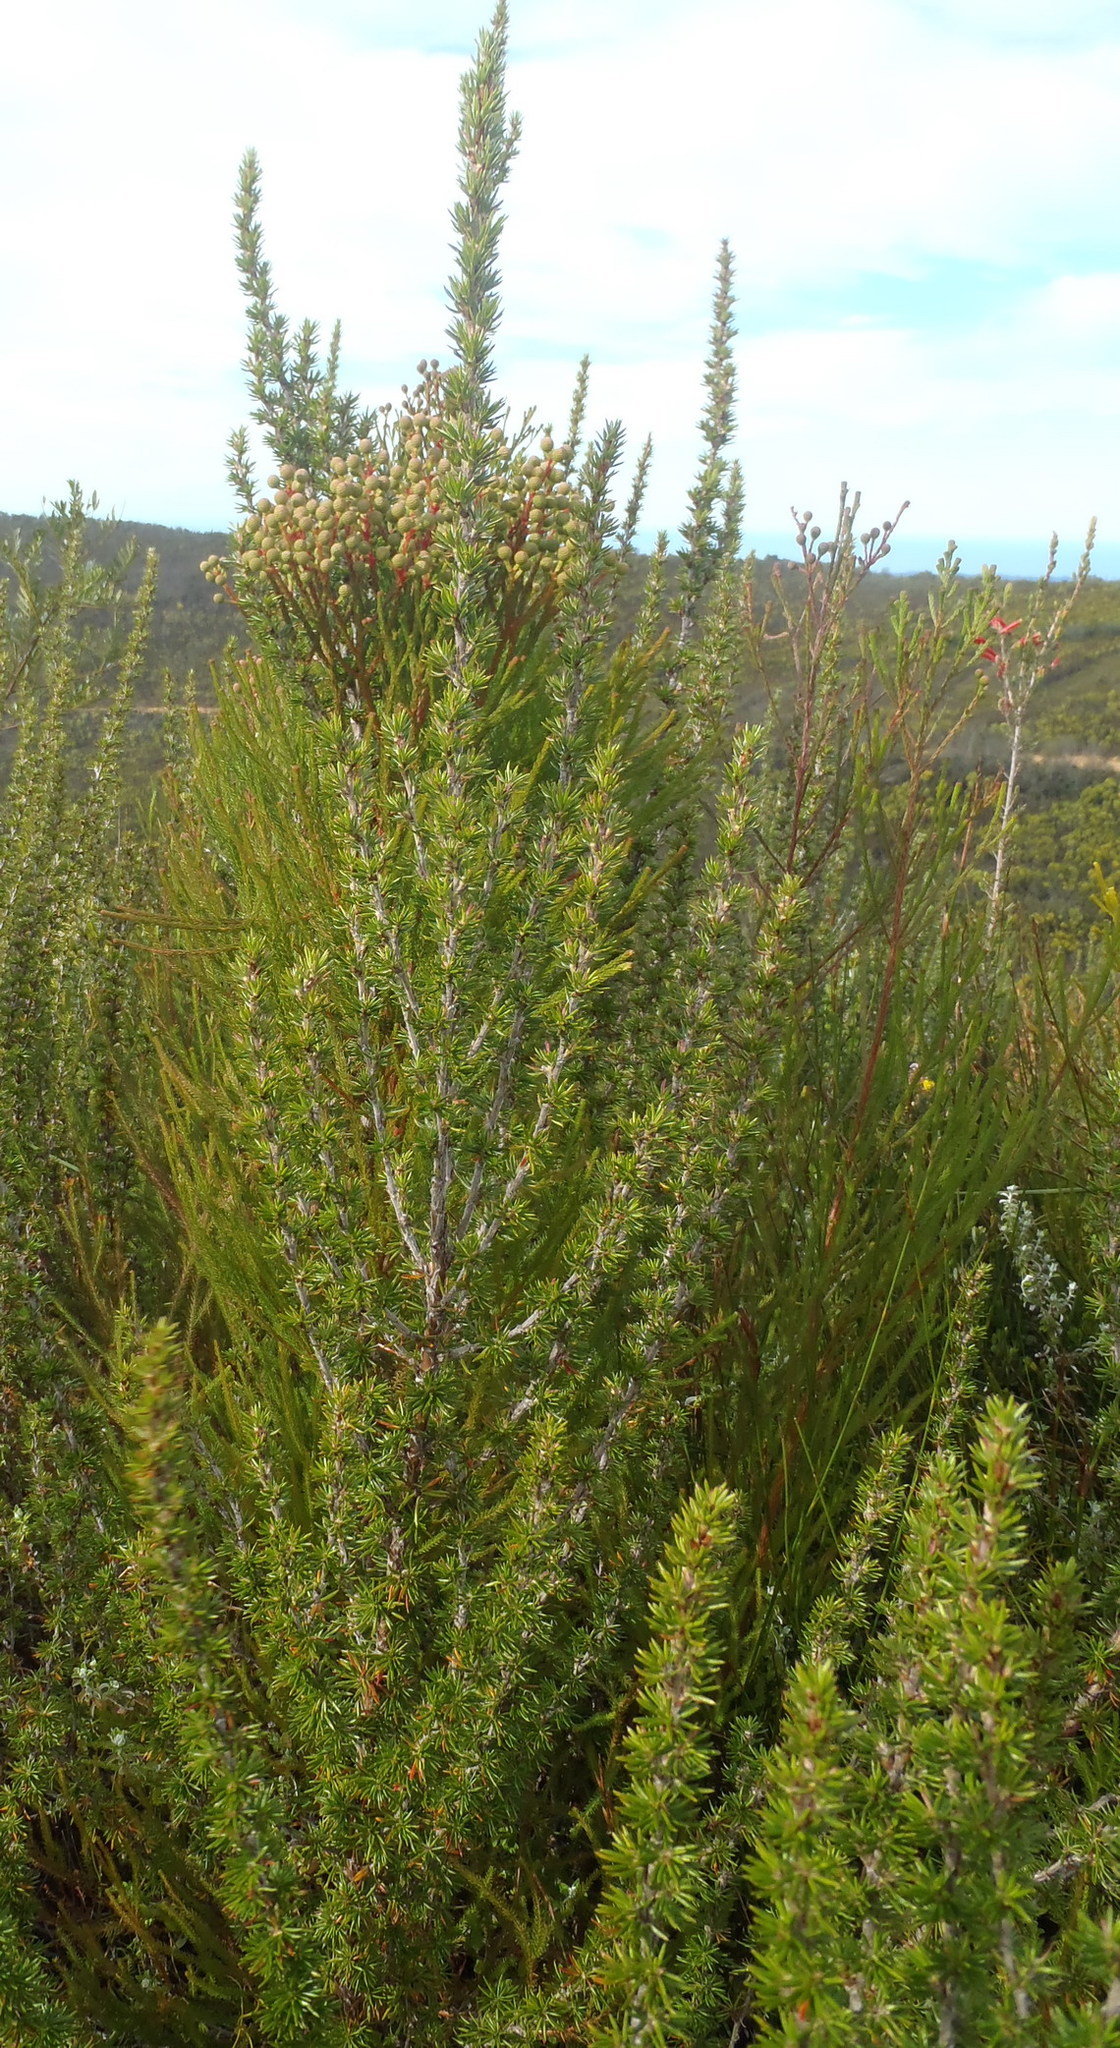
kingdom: Plantae
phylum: Tracheophyta
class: Magnoliopsida
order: Rosales
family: Rosaceae
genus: Cliffortia
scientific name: Cliffortia stricta
